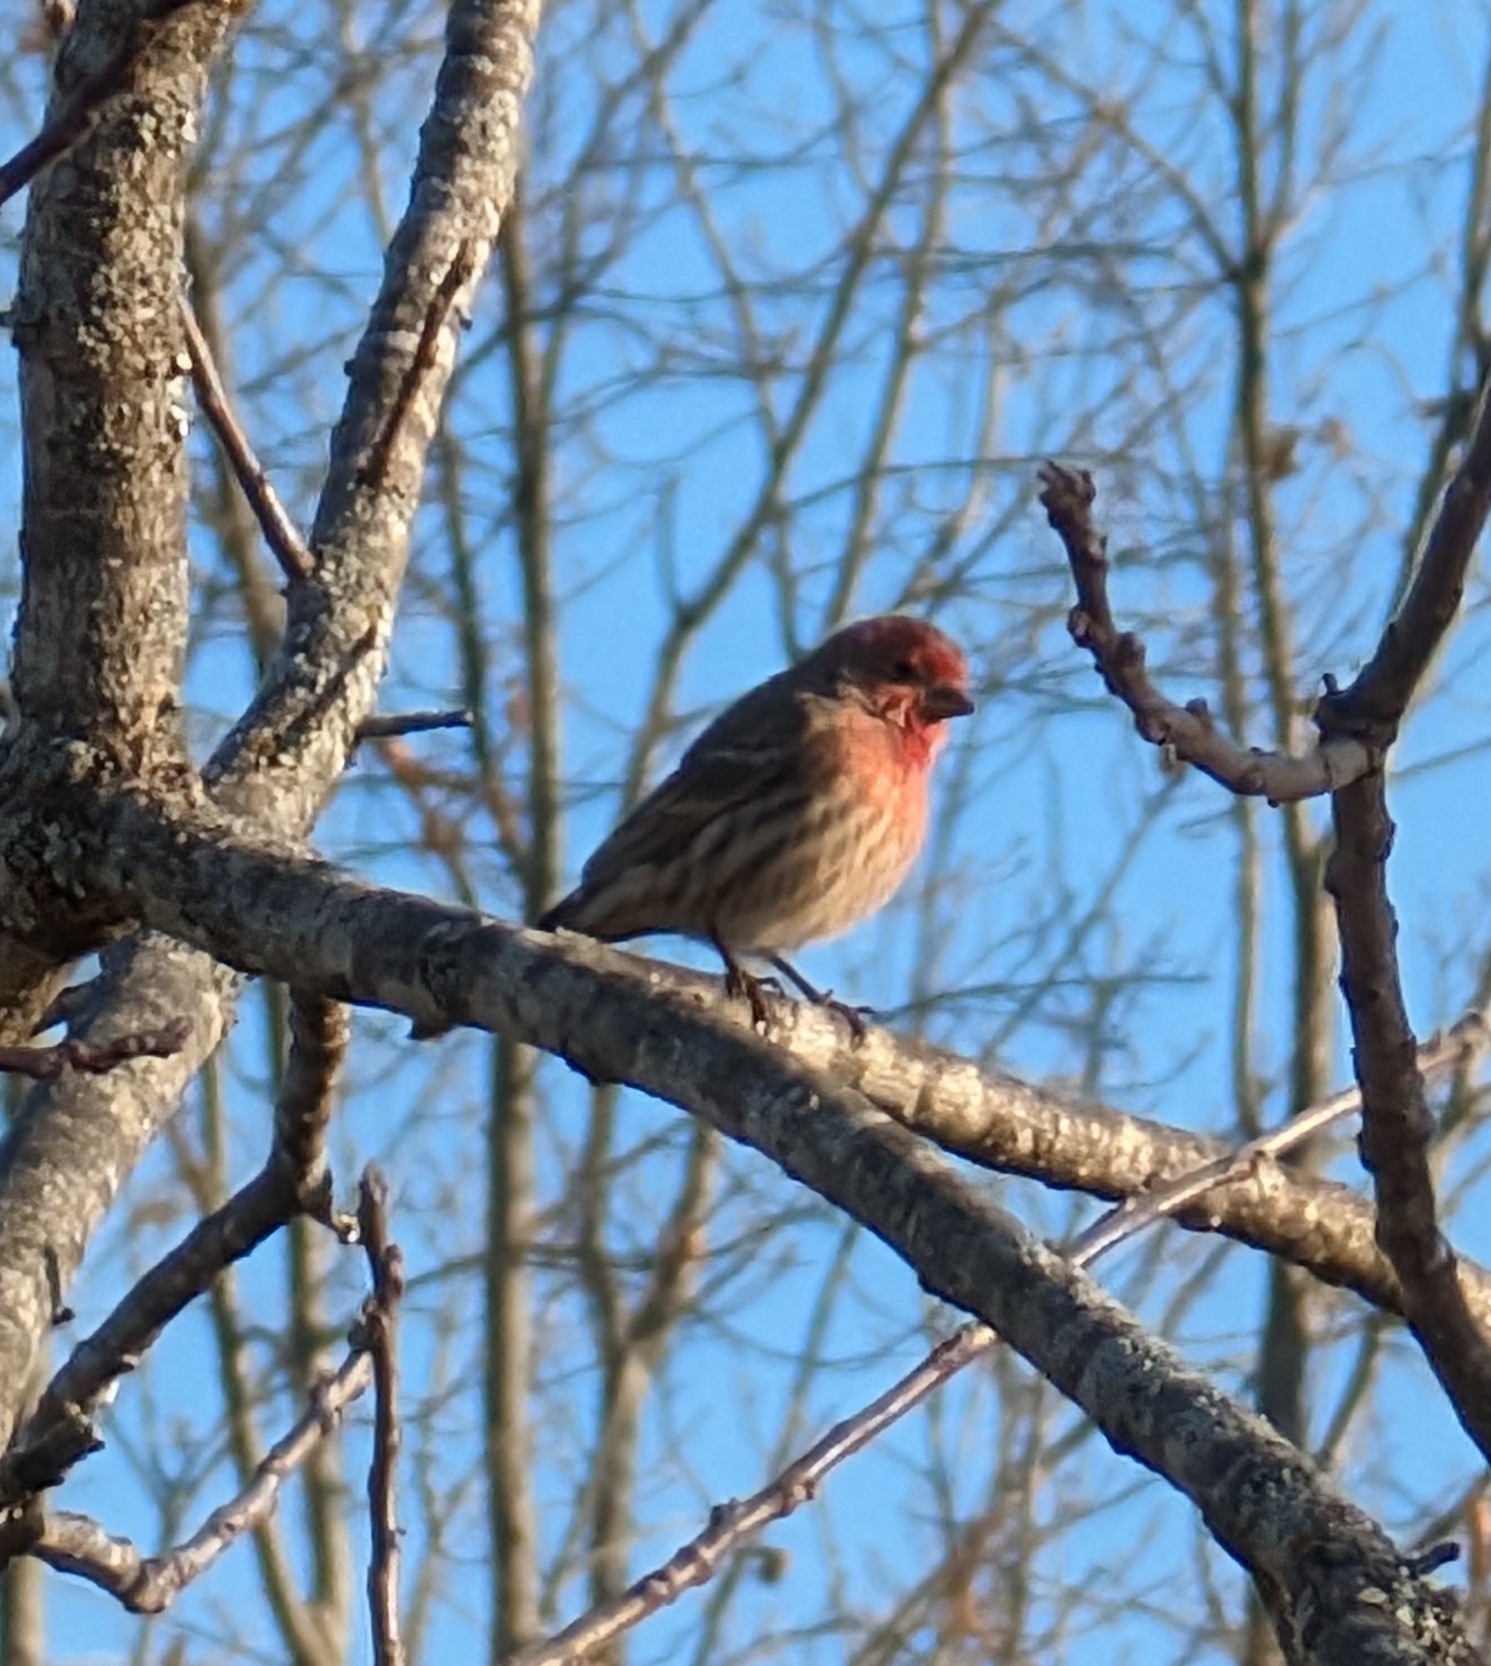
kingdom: Animalia
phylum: Chordata
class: Aves
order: Passeriformes
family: Fringillidae
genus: Haemorhous
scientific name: Haemorhous mexicanus
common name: House finch
